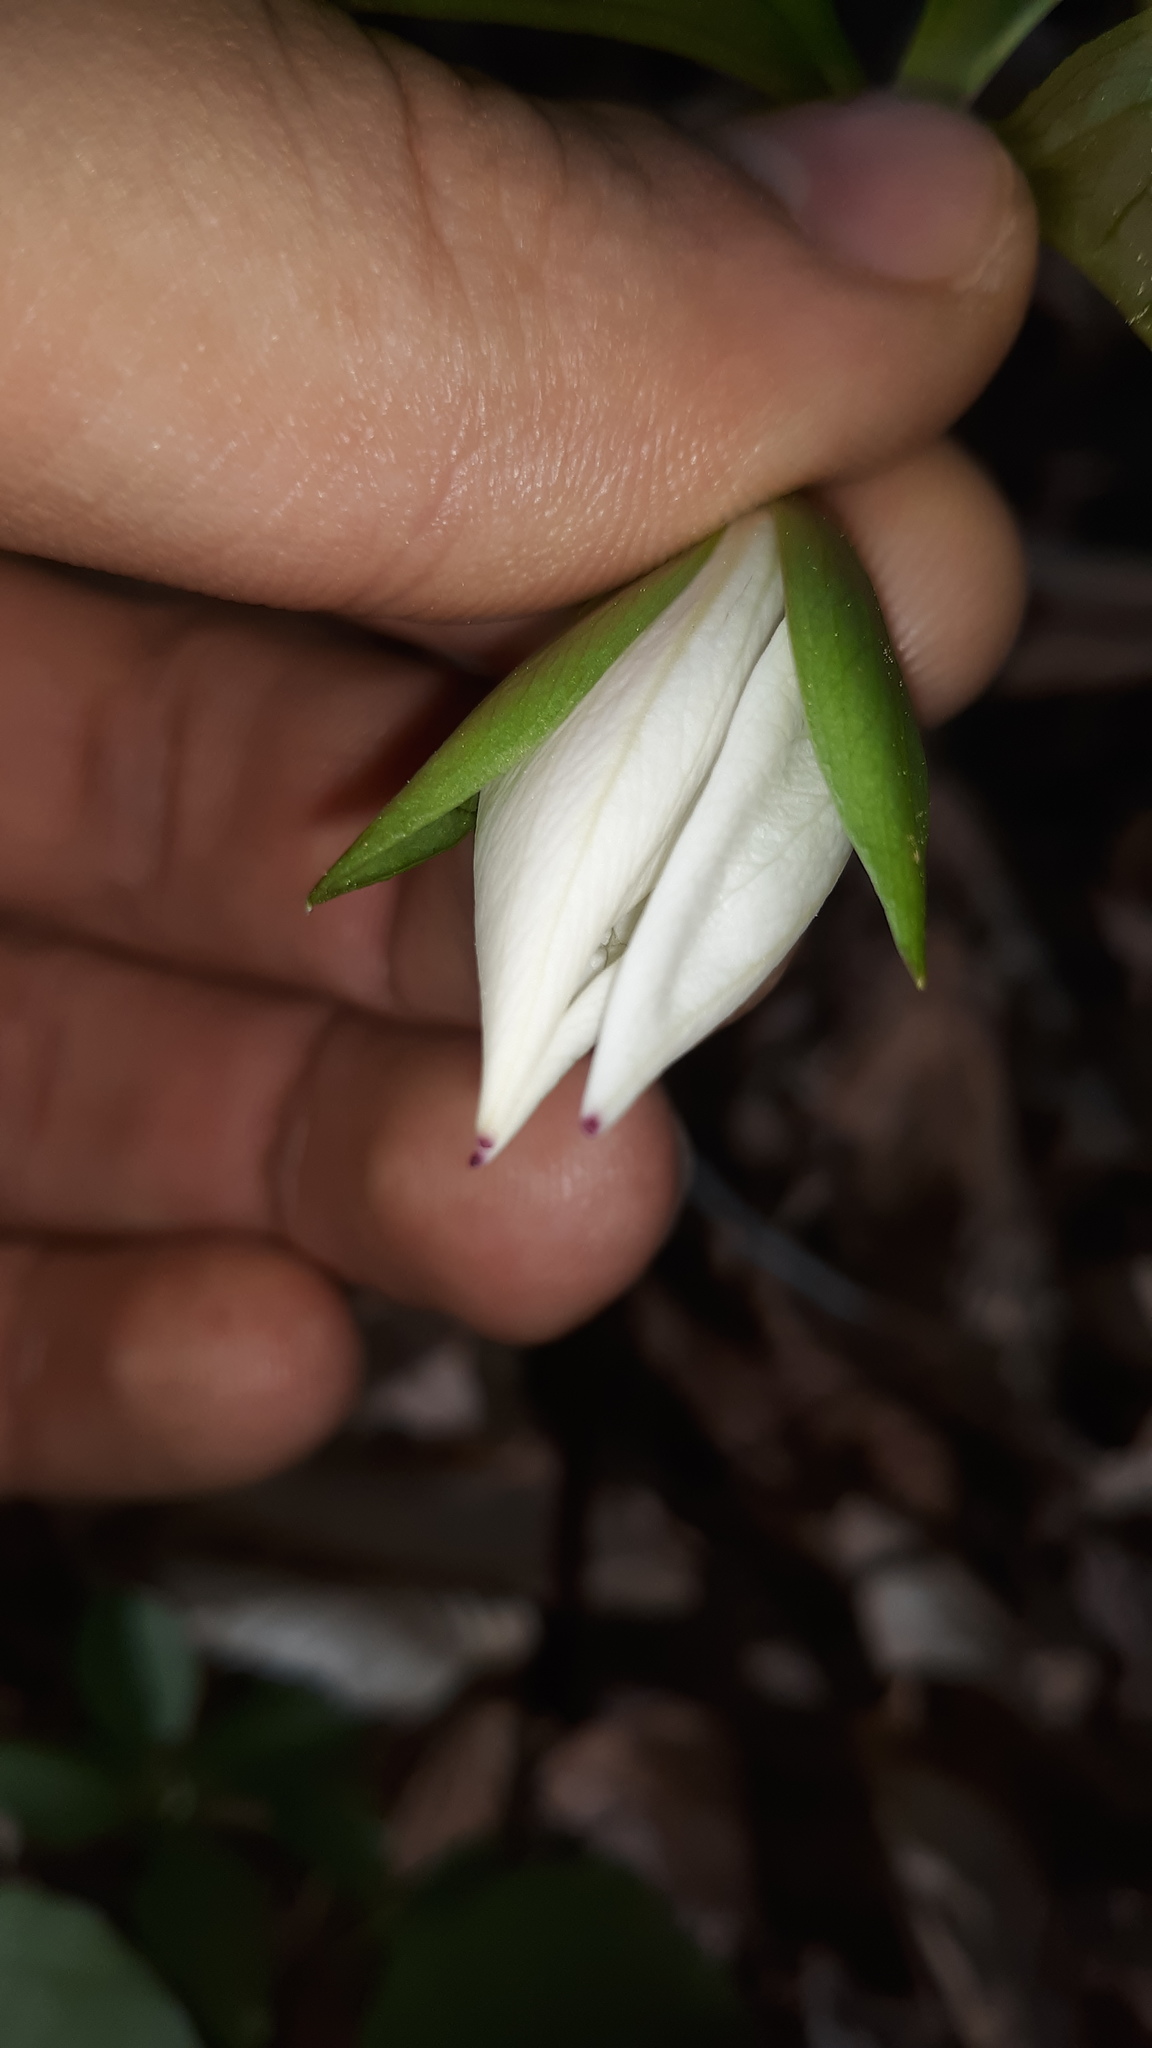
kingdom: Plantae
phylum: Tracheophyta
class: Liliopsida
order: Liliales
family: Melanthiaceae
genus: Trillium
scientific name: Trillium rugelii
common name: Ill-scented trillium
